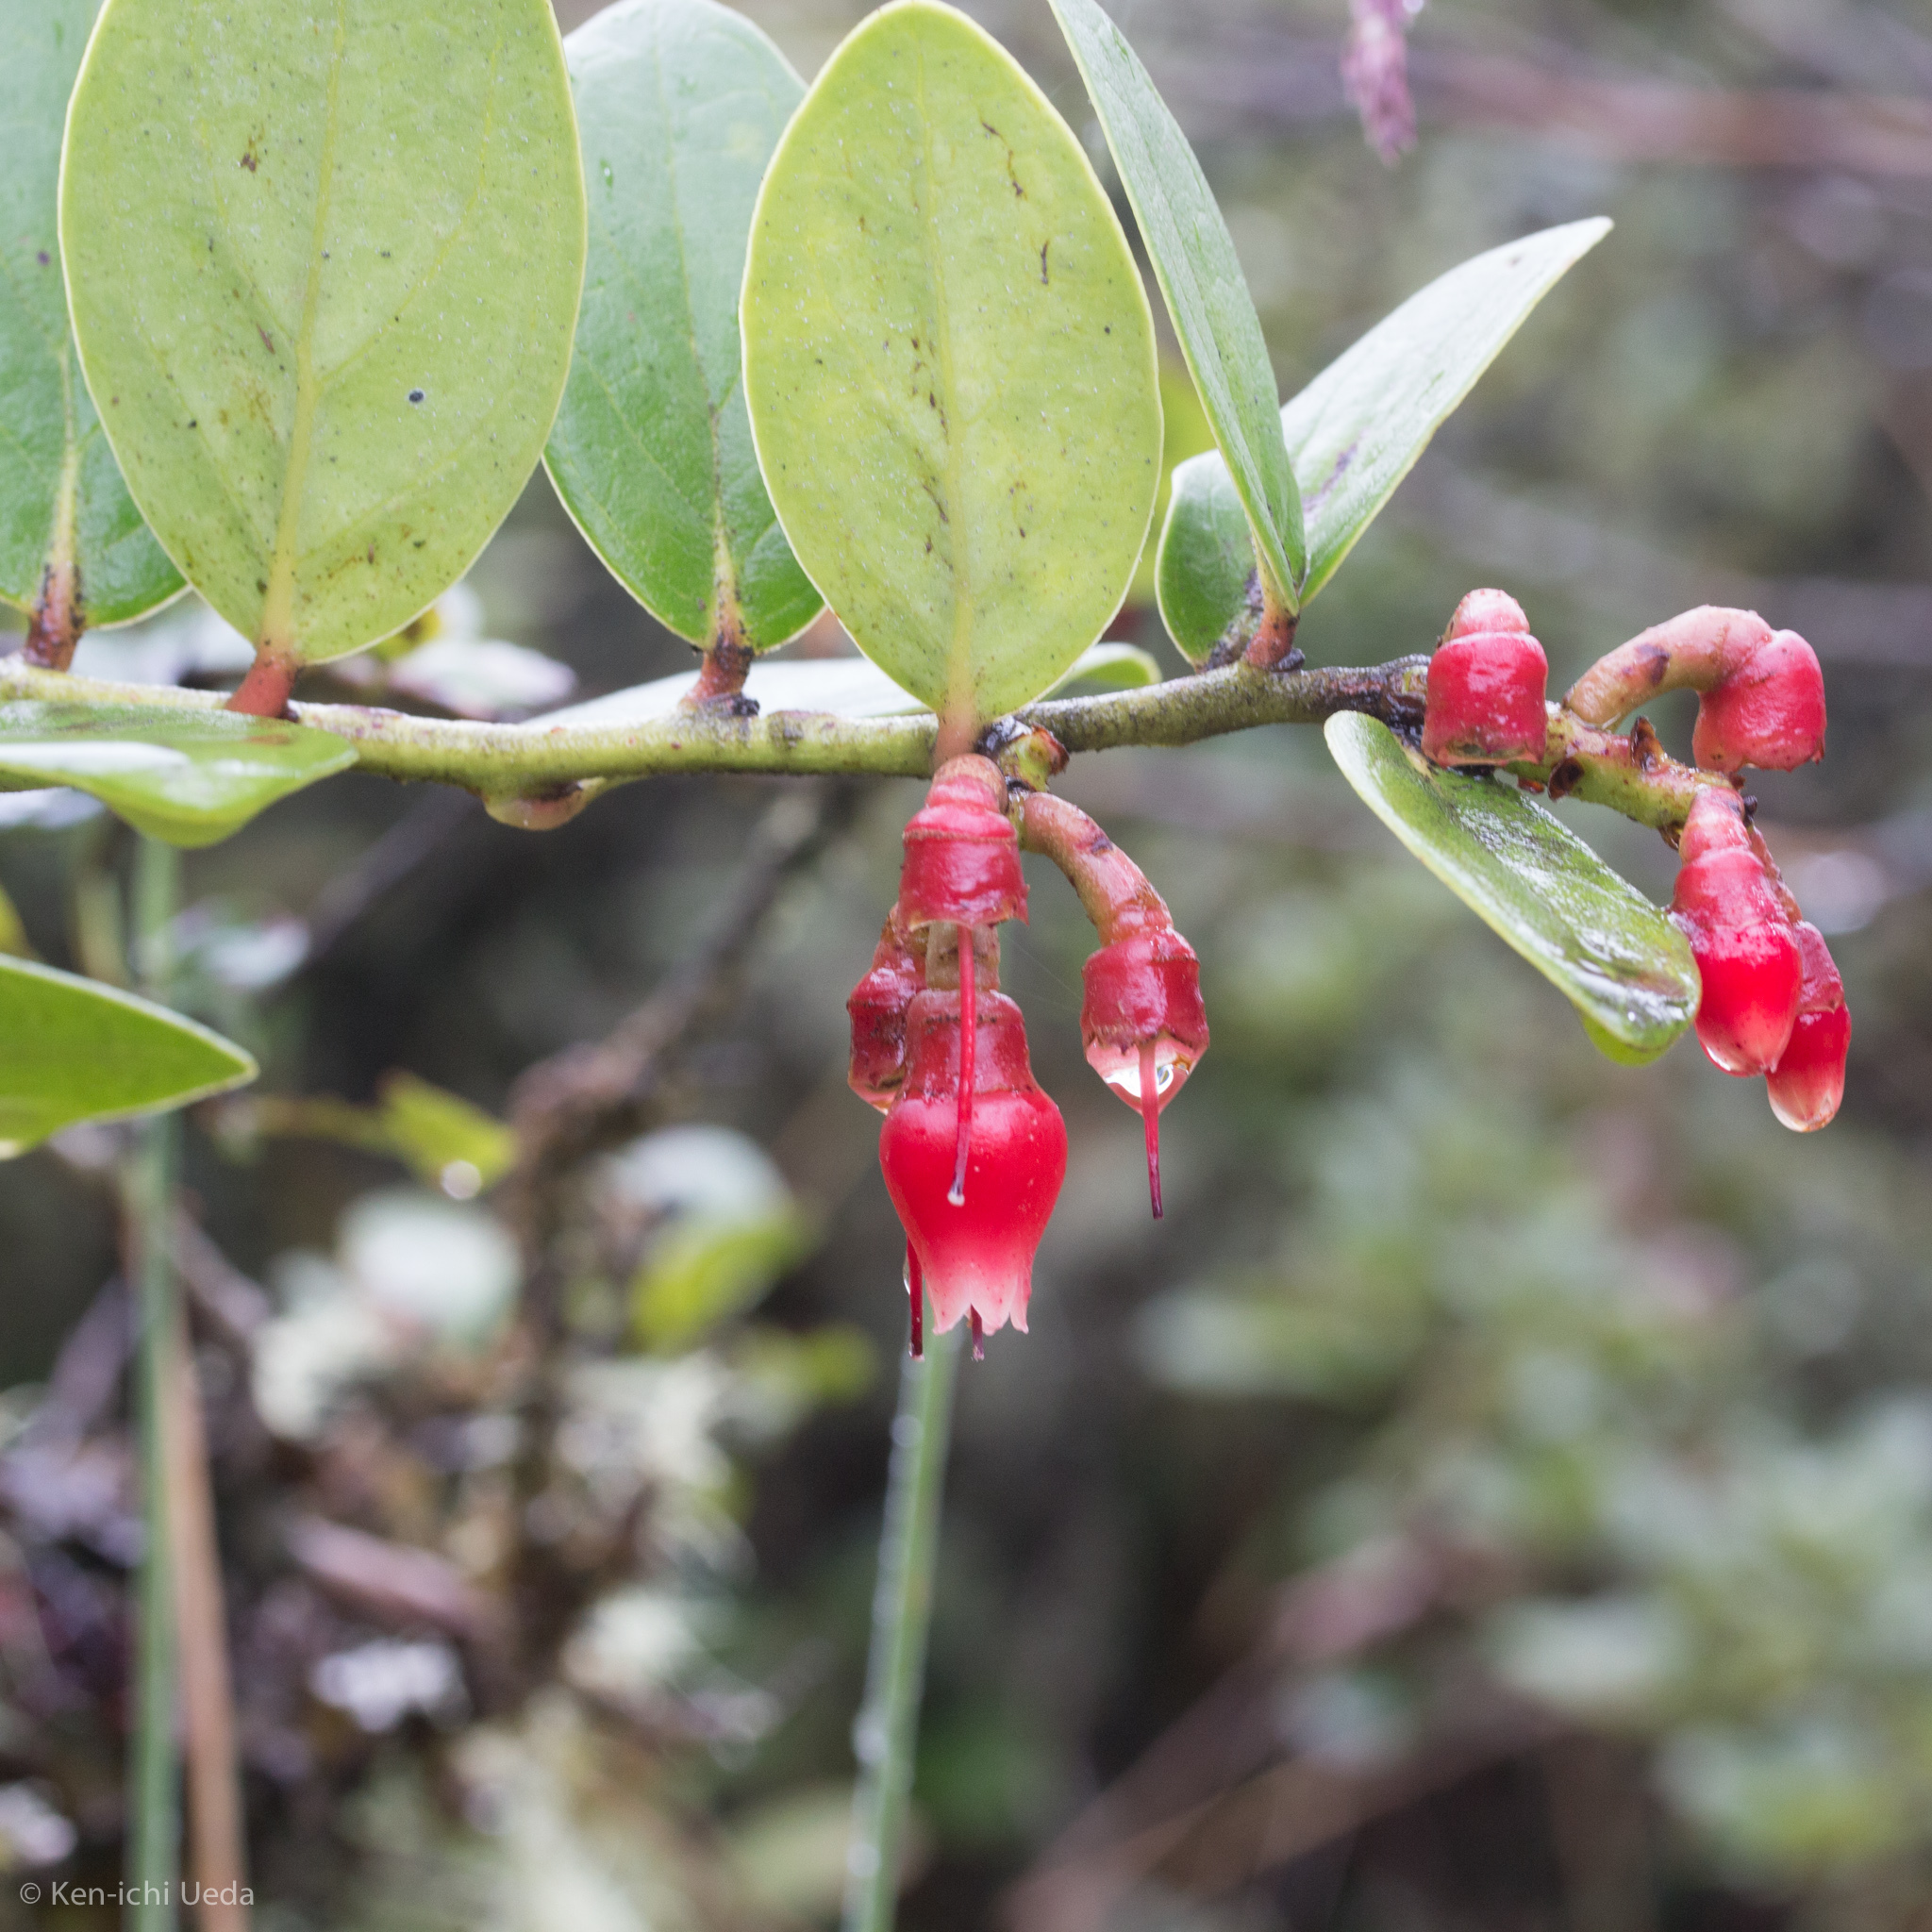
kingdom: Plantae
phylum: Tracheophyta
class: Magnoliopsida
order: Ericales
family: Ericaceae
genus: Macleania
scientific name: Macleania rupestris
